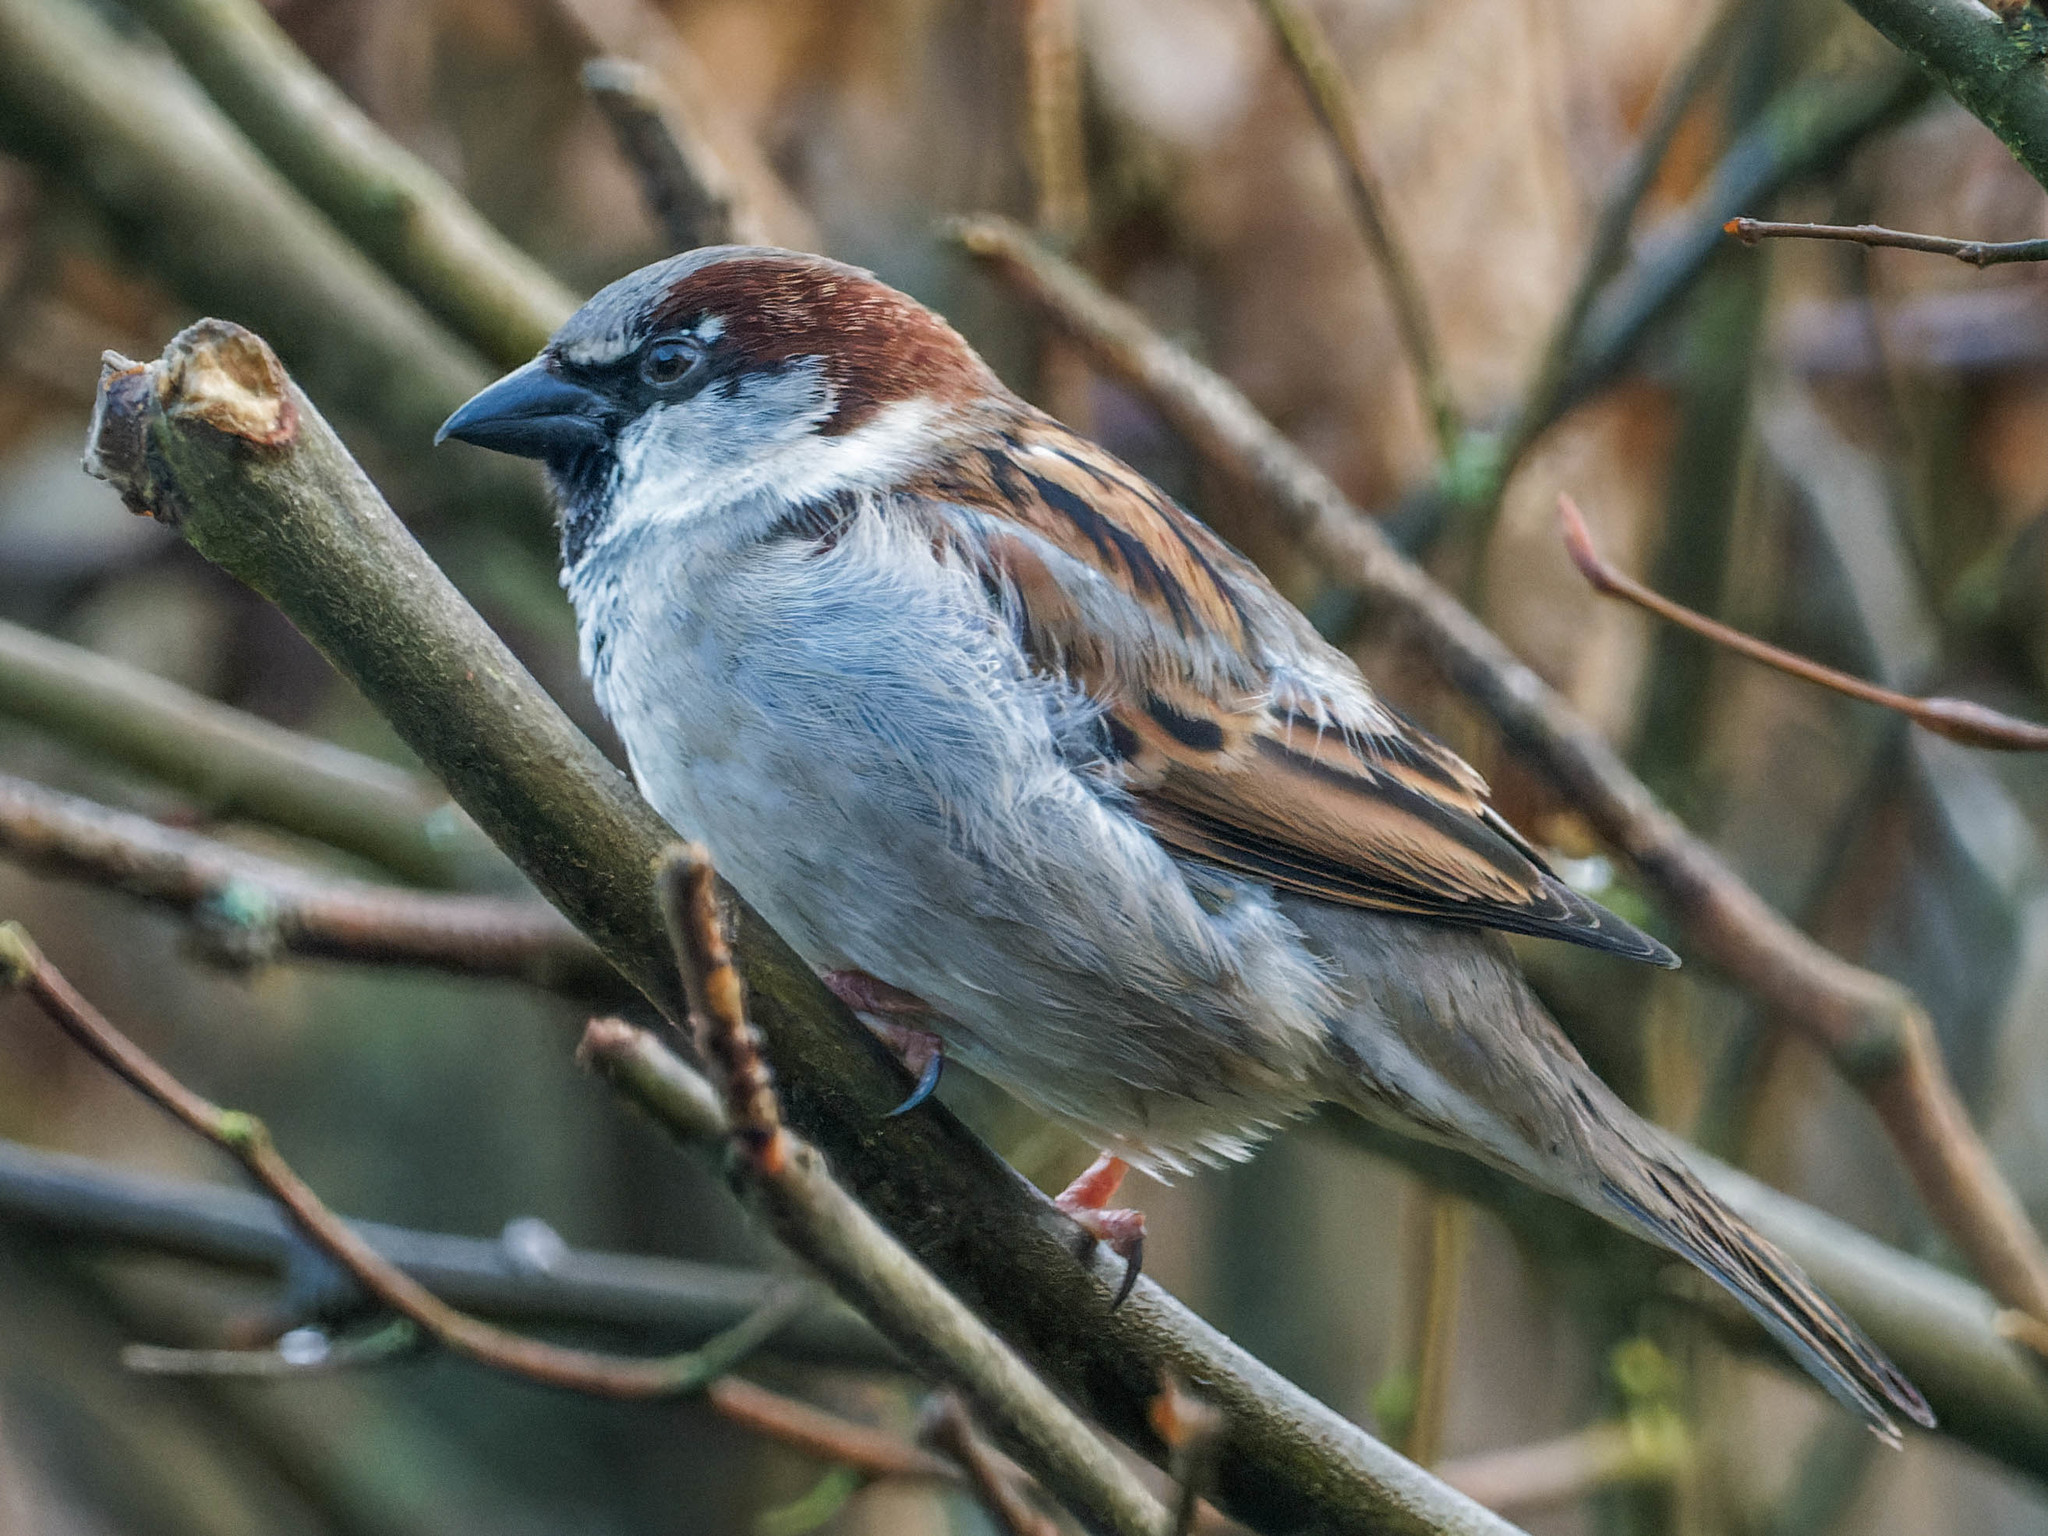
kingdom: Animalia
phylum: Chordata
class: Aves
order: Passeriformes
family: Passeridae
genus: Passer
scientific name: Passer domesticus
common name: House sparrow
